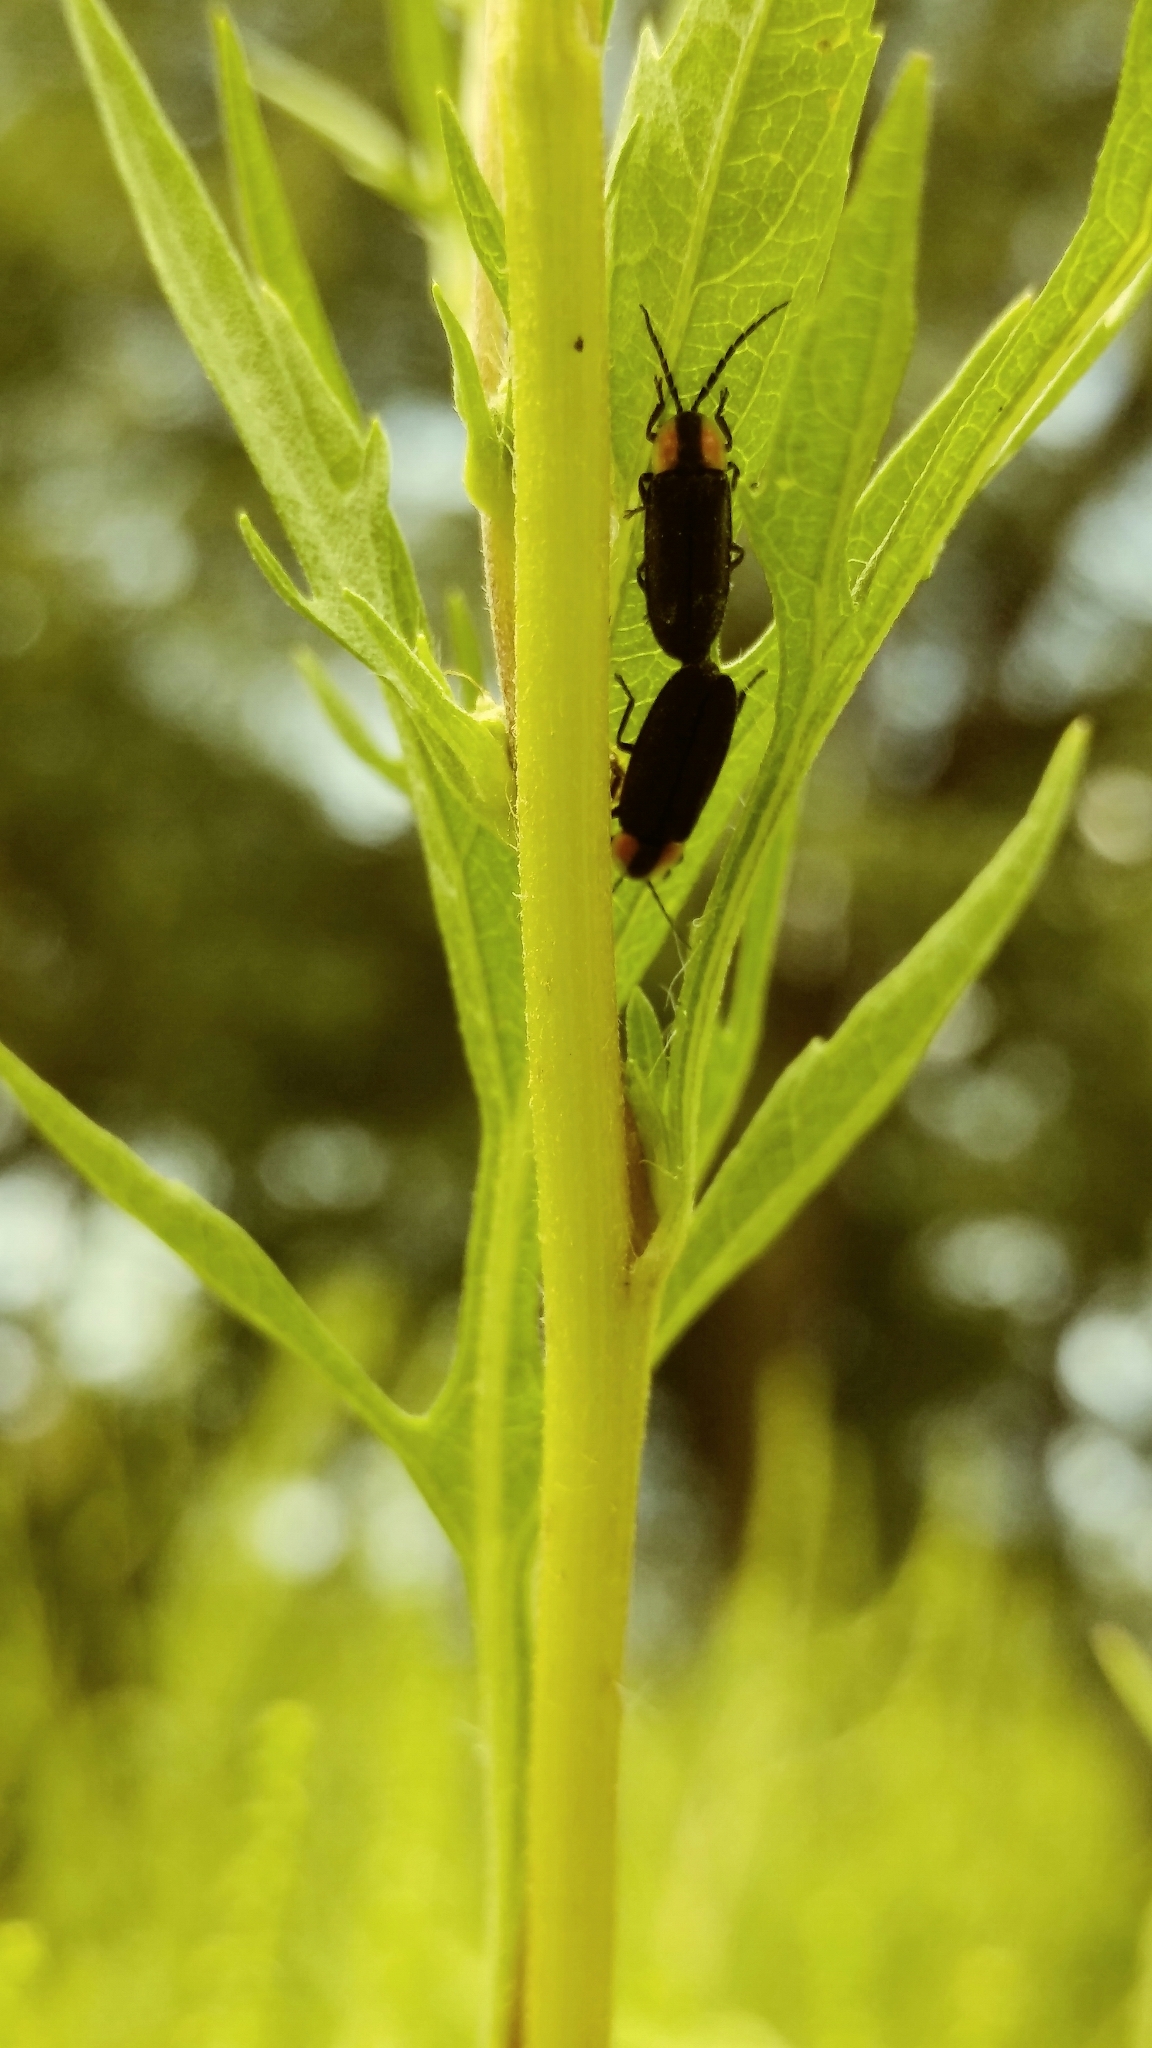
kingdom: Animalia
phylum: Arthropoda
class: Insecta
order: Coleoptera
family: Lampyridae
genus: Pyropyga
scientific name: Pyropyga minuta
